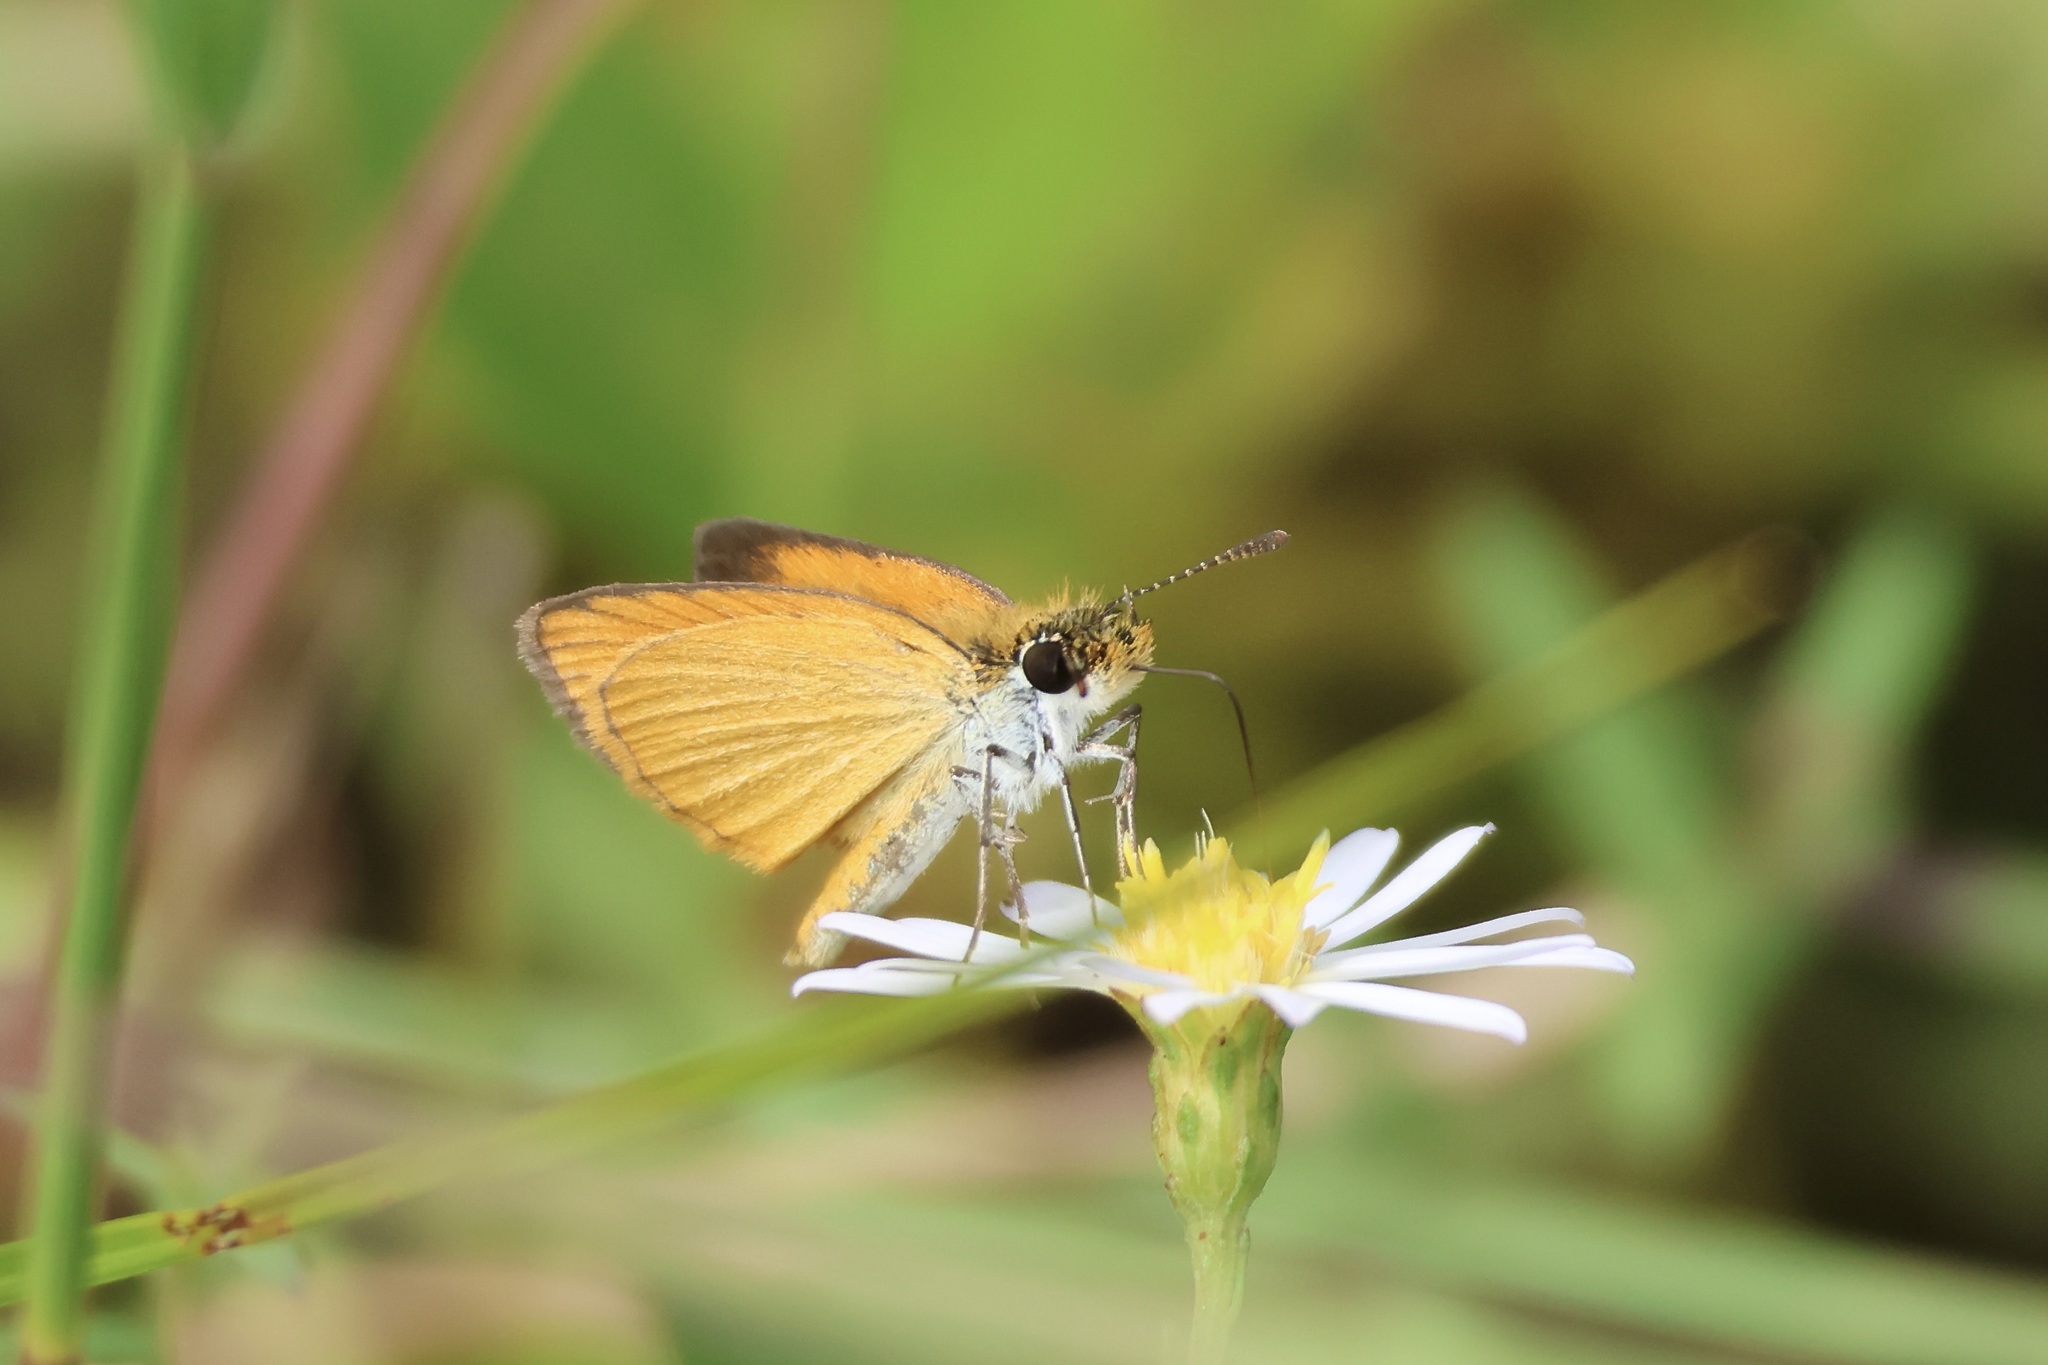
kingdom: Animalia
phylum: Arthropoda
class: Insecta
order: Lepidoptera
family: Hesperiidae
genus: Ancyloxypha
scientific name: Ancyloxypha numitor
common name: Least skipper
